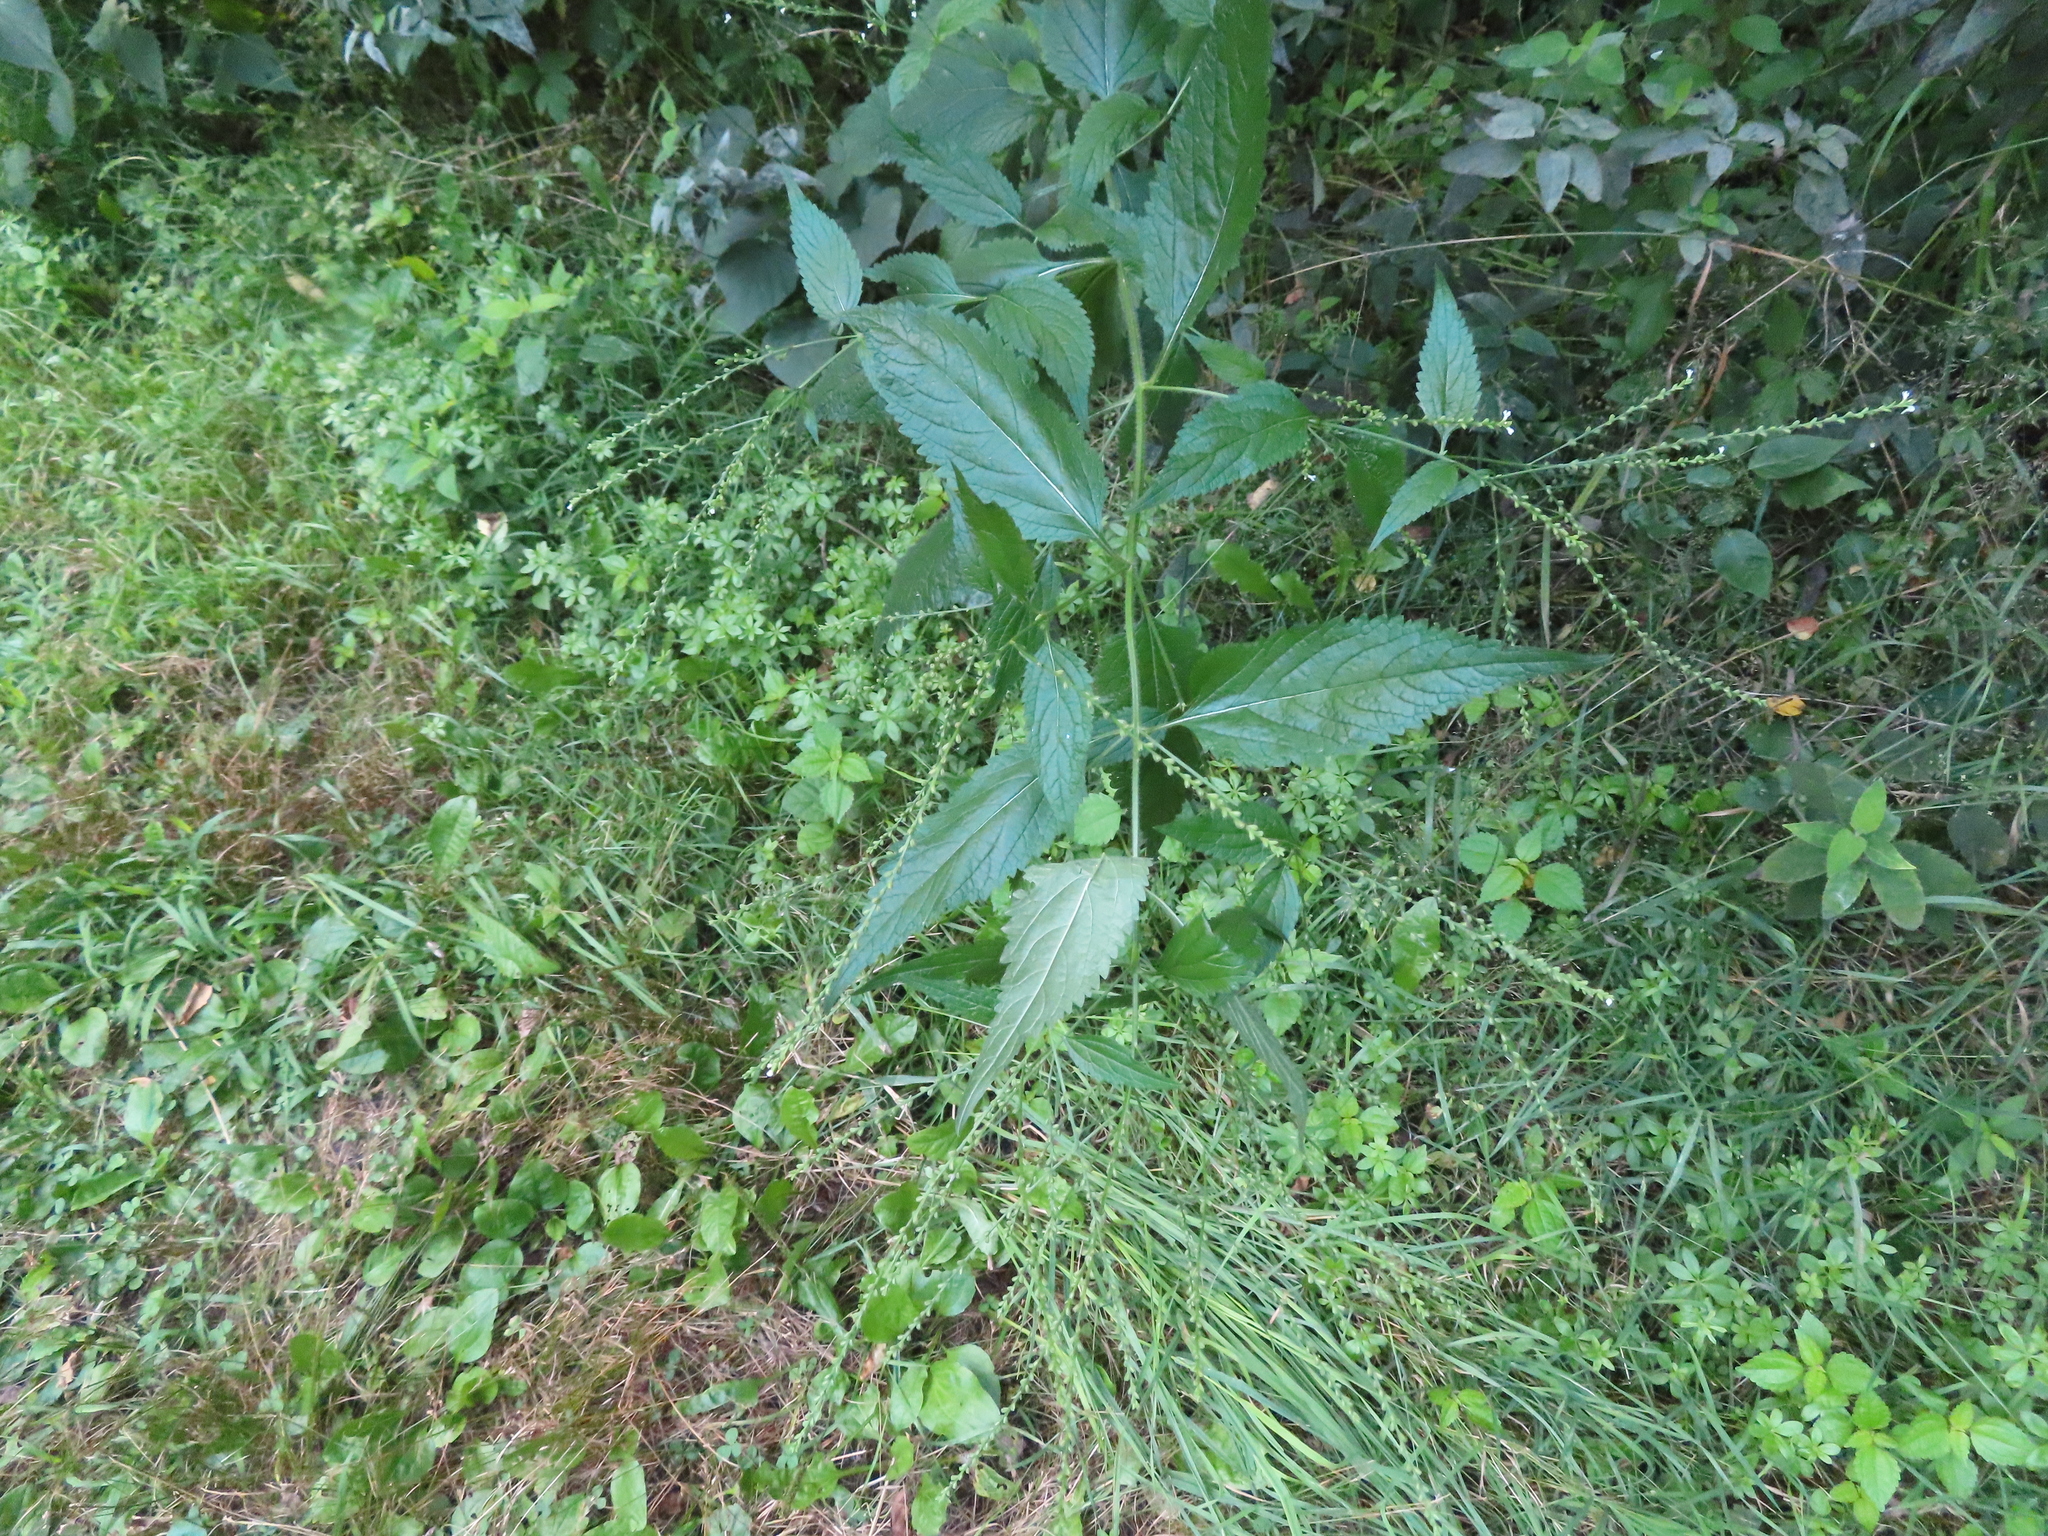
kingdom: Plantae
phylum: Tracheophyta
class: Magnoliopsida
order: Lamiales
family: Verbenaceae
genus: Verbena
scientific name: Verbena urticifolia
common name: Nettle-leaved vervain
